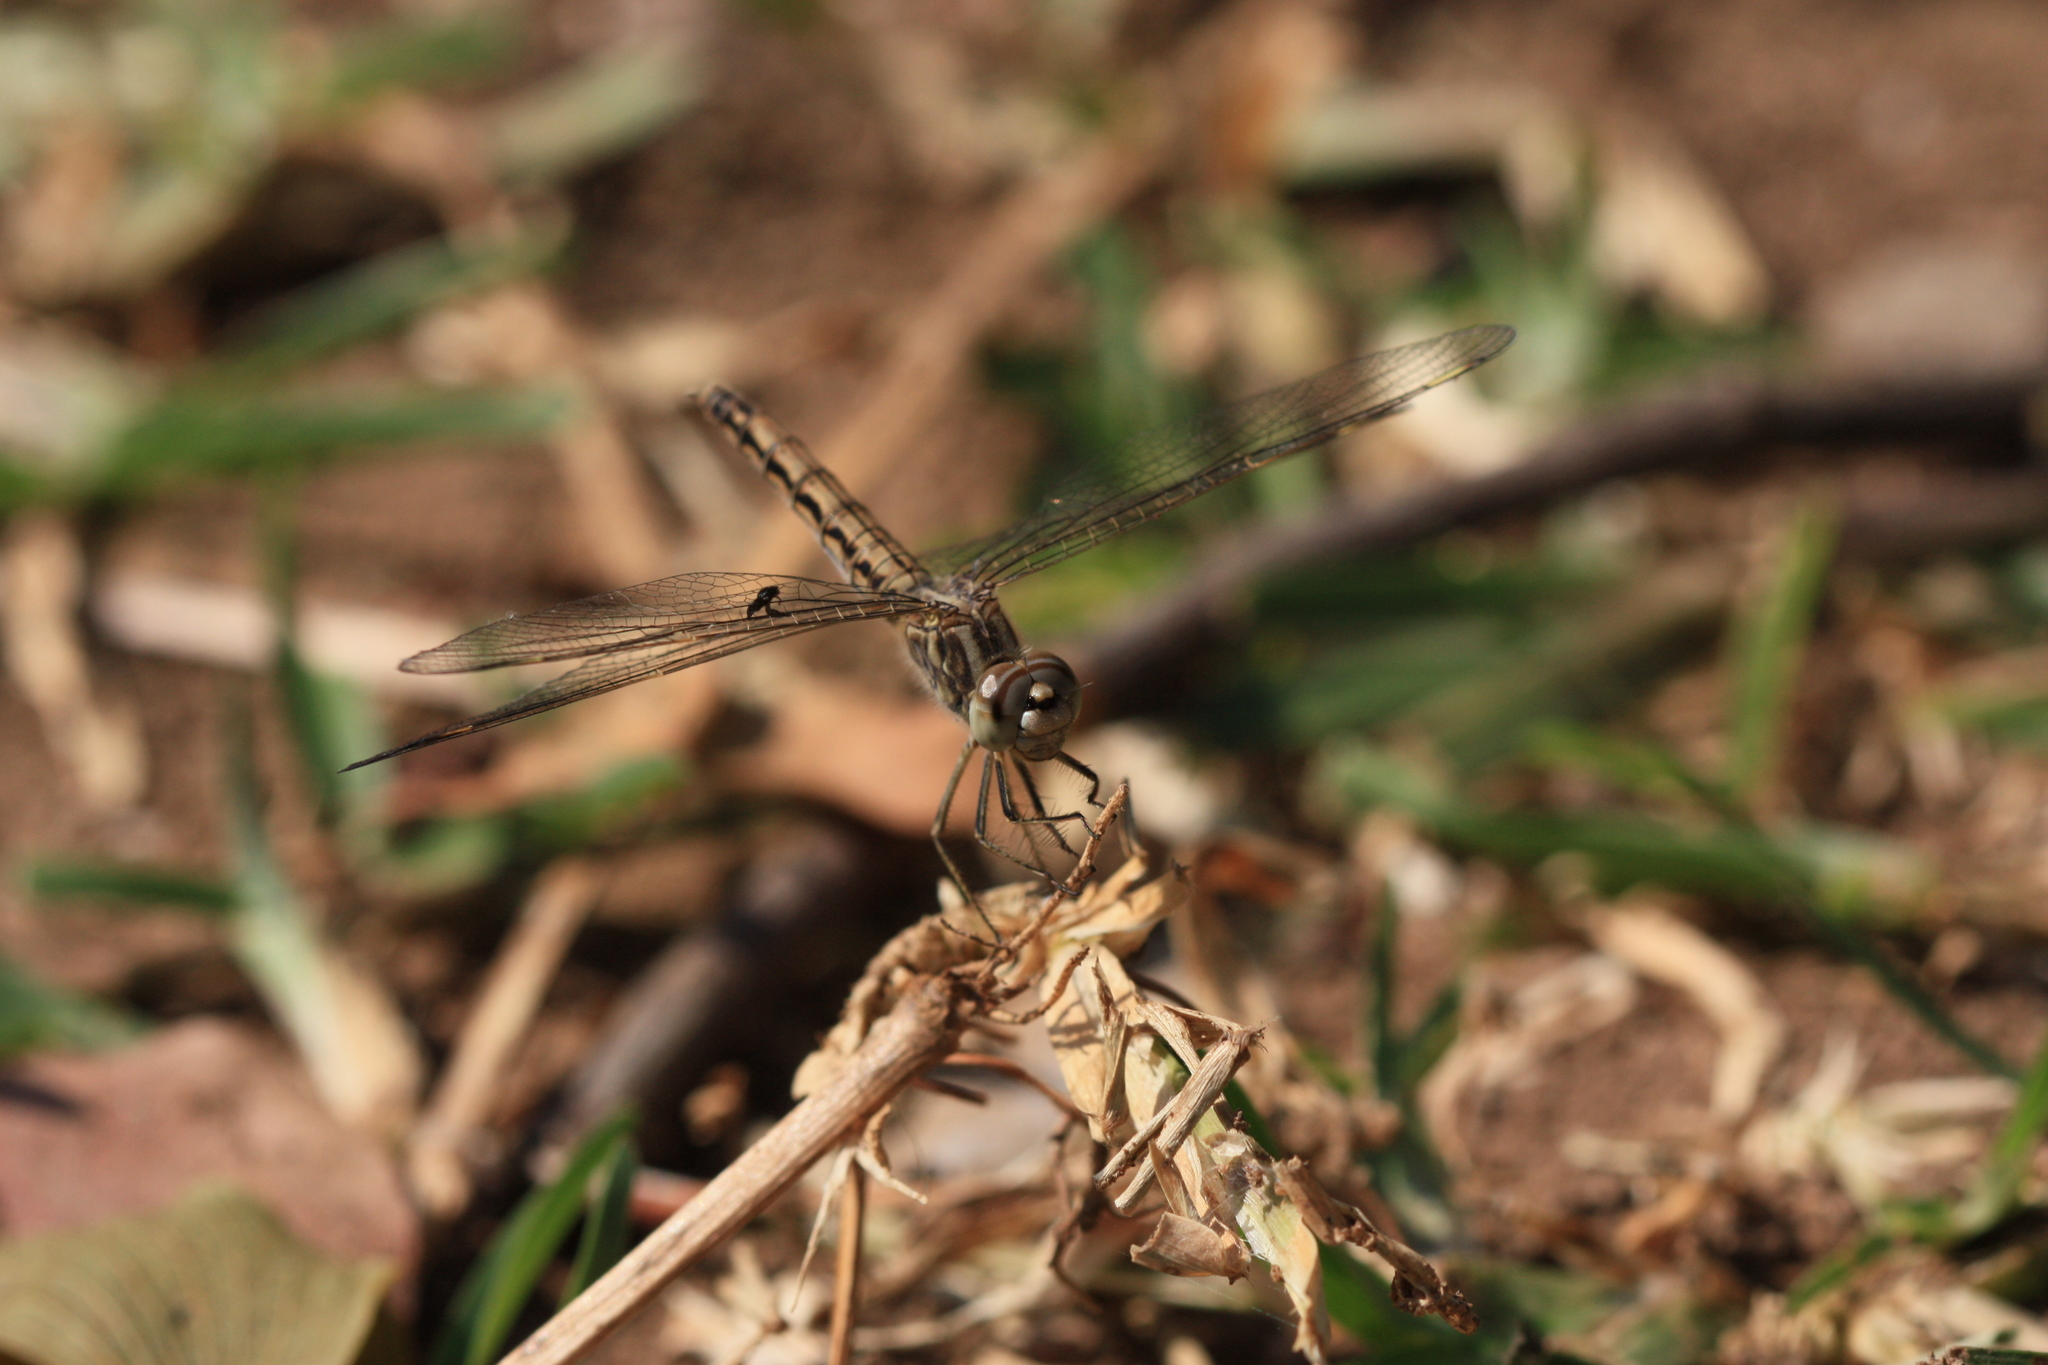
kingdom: Animalia
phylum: Arthropoda
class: Insecta
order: Odonata
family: Libellulidae
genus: Brachythemis
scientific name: Brachythemis leucosticta
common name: Banded groundling
